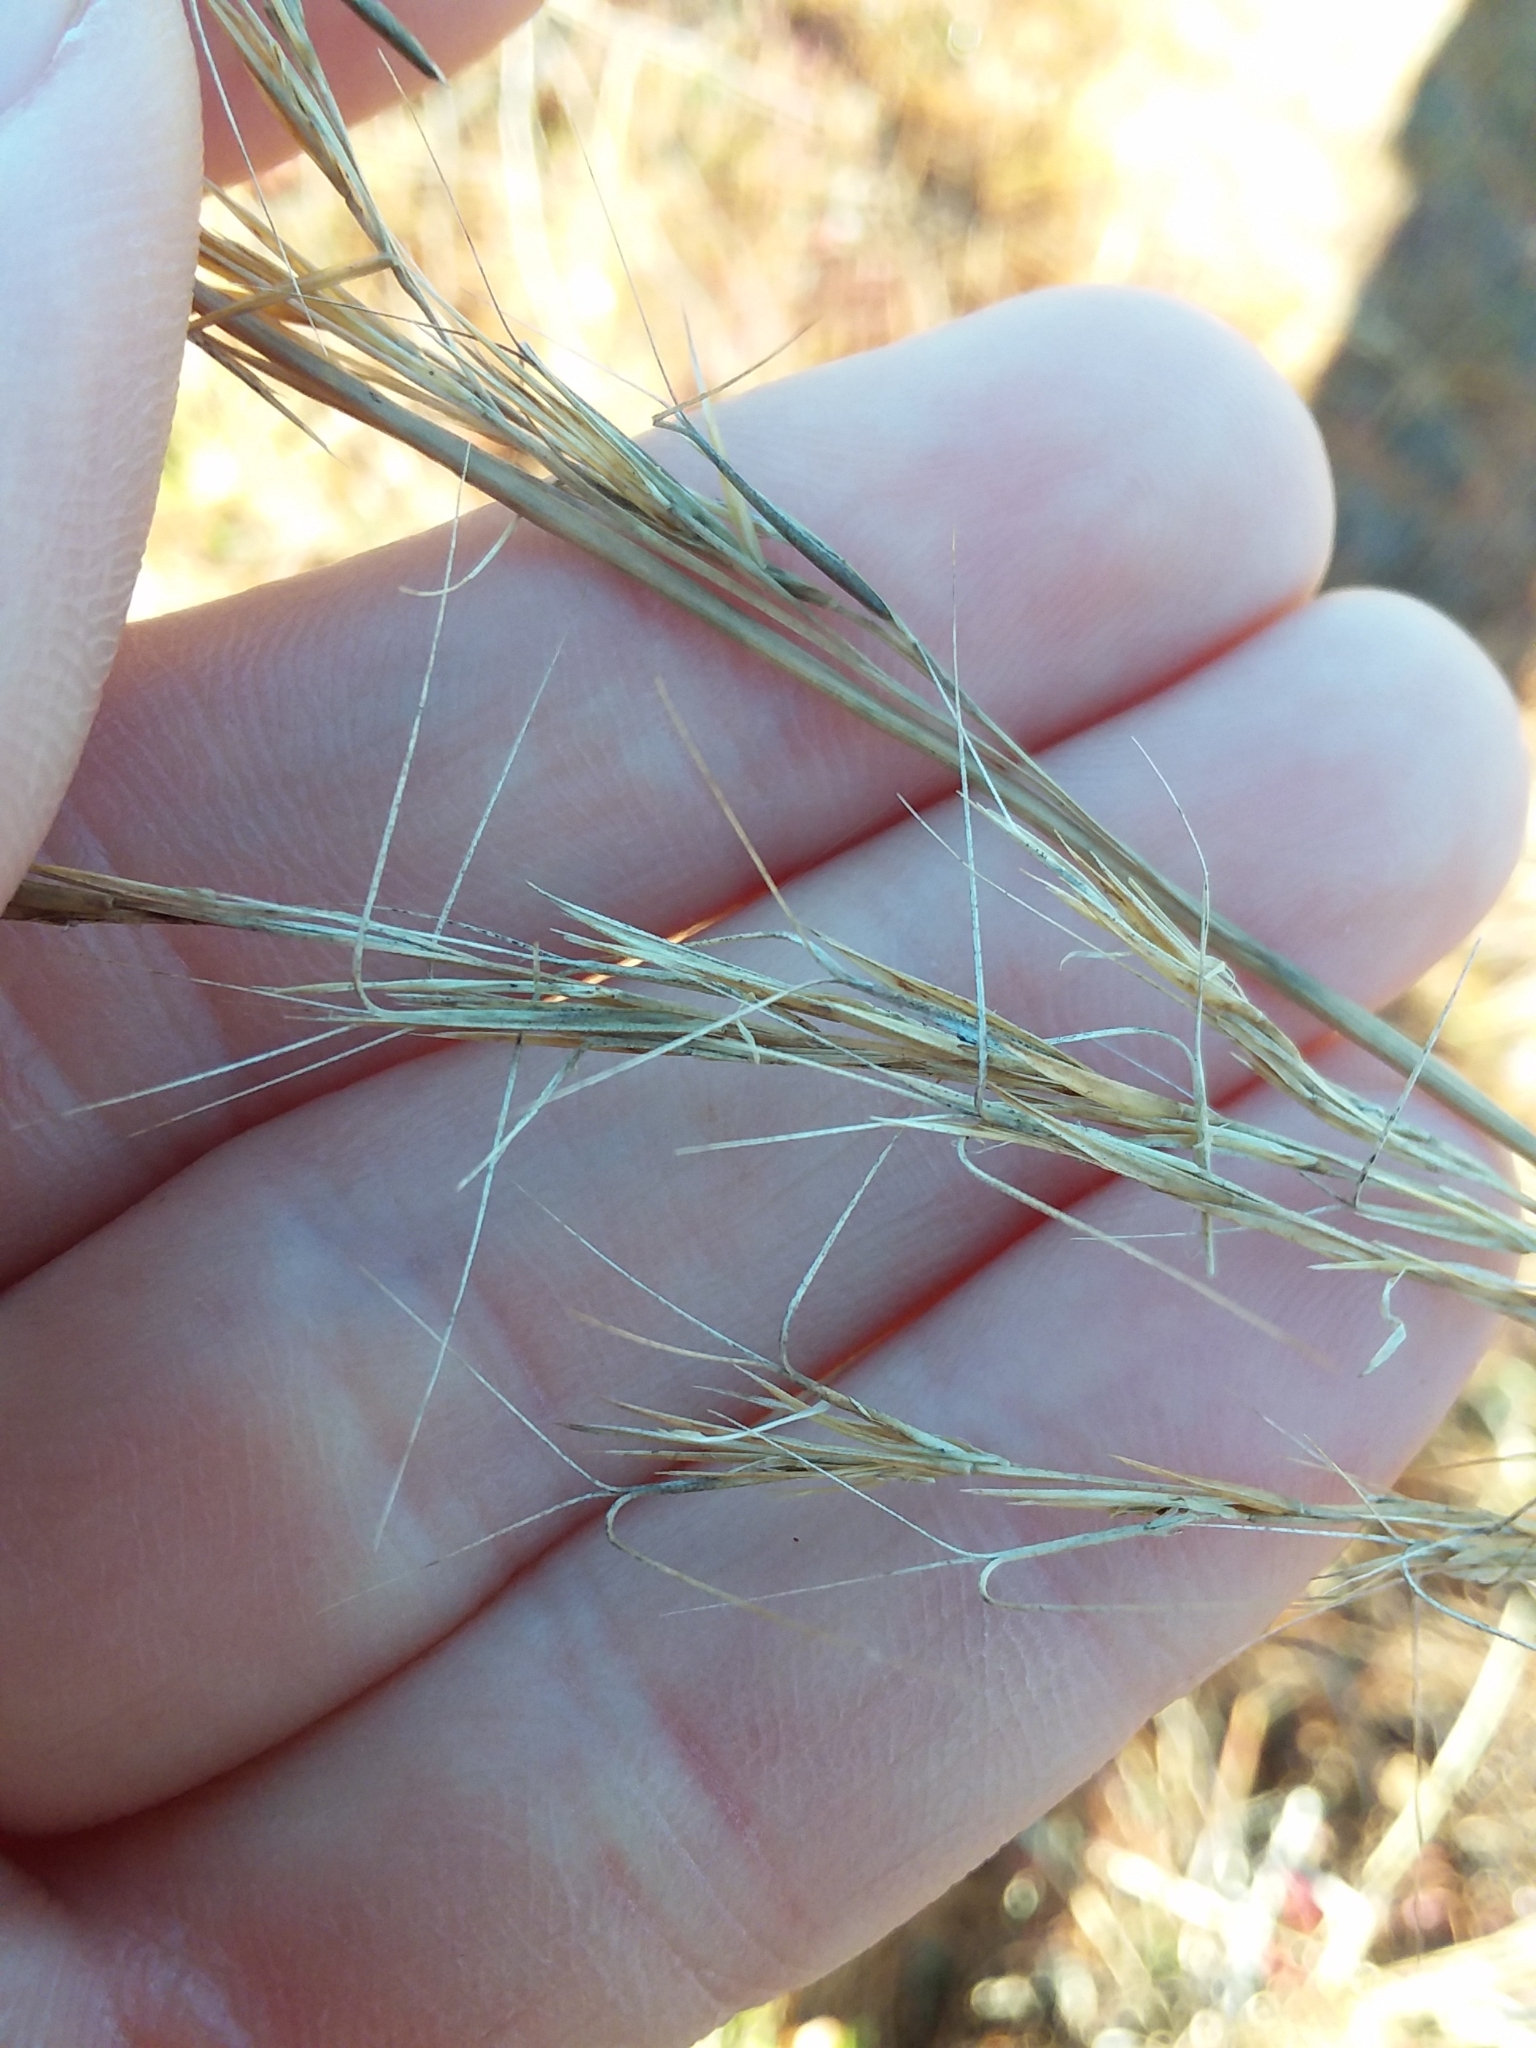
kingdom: Plantae
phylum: Tracheophyta
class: Liliopsida
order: Poales
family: Poaceae
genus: Aristida
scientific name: Aristida condensata
